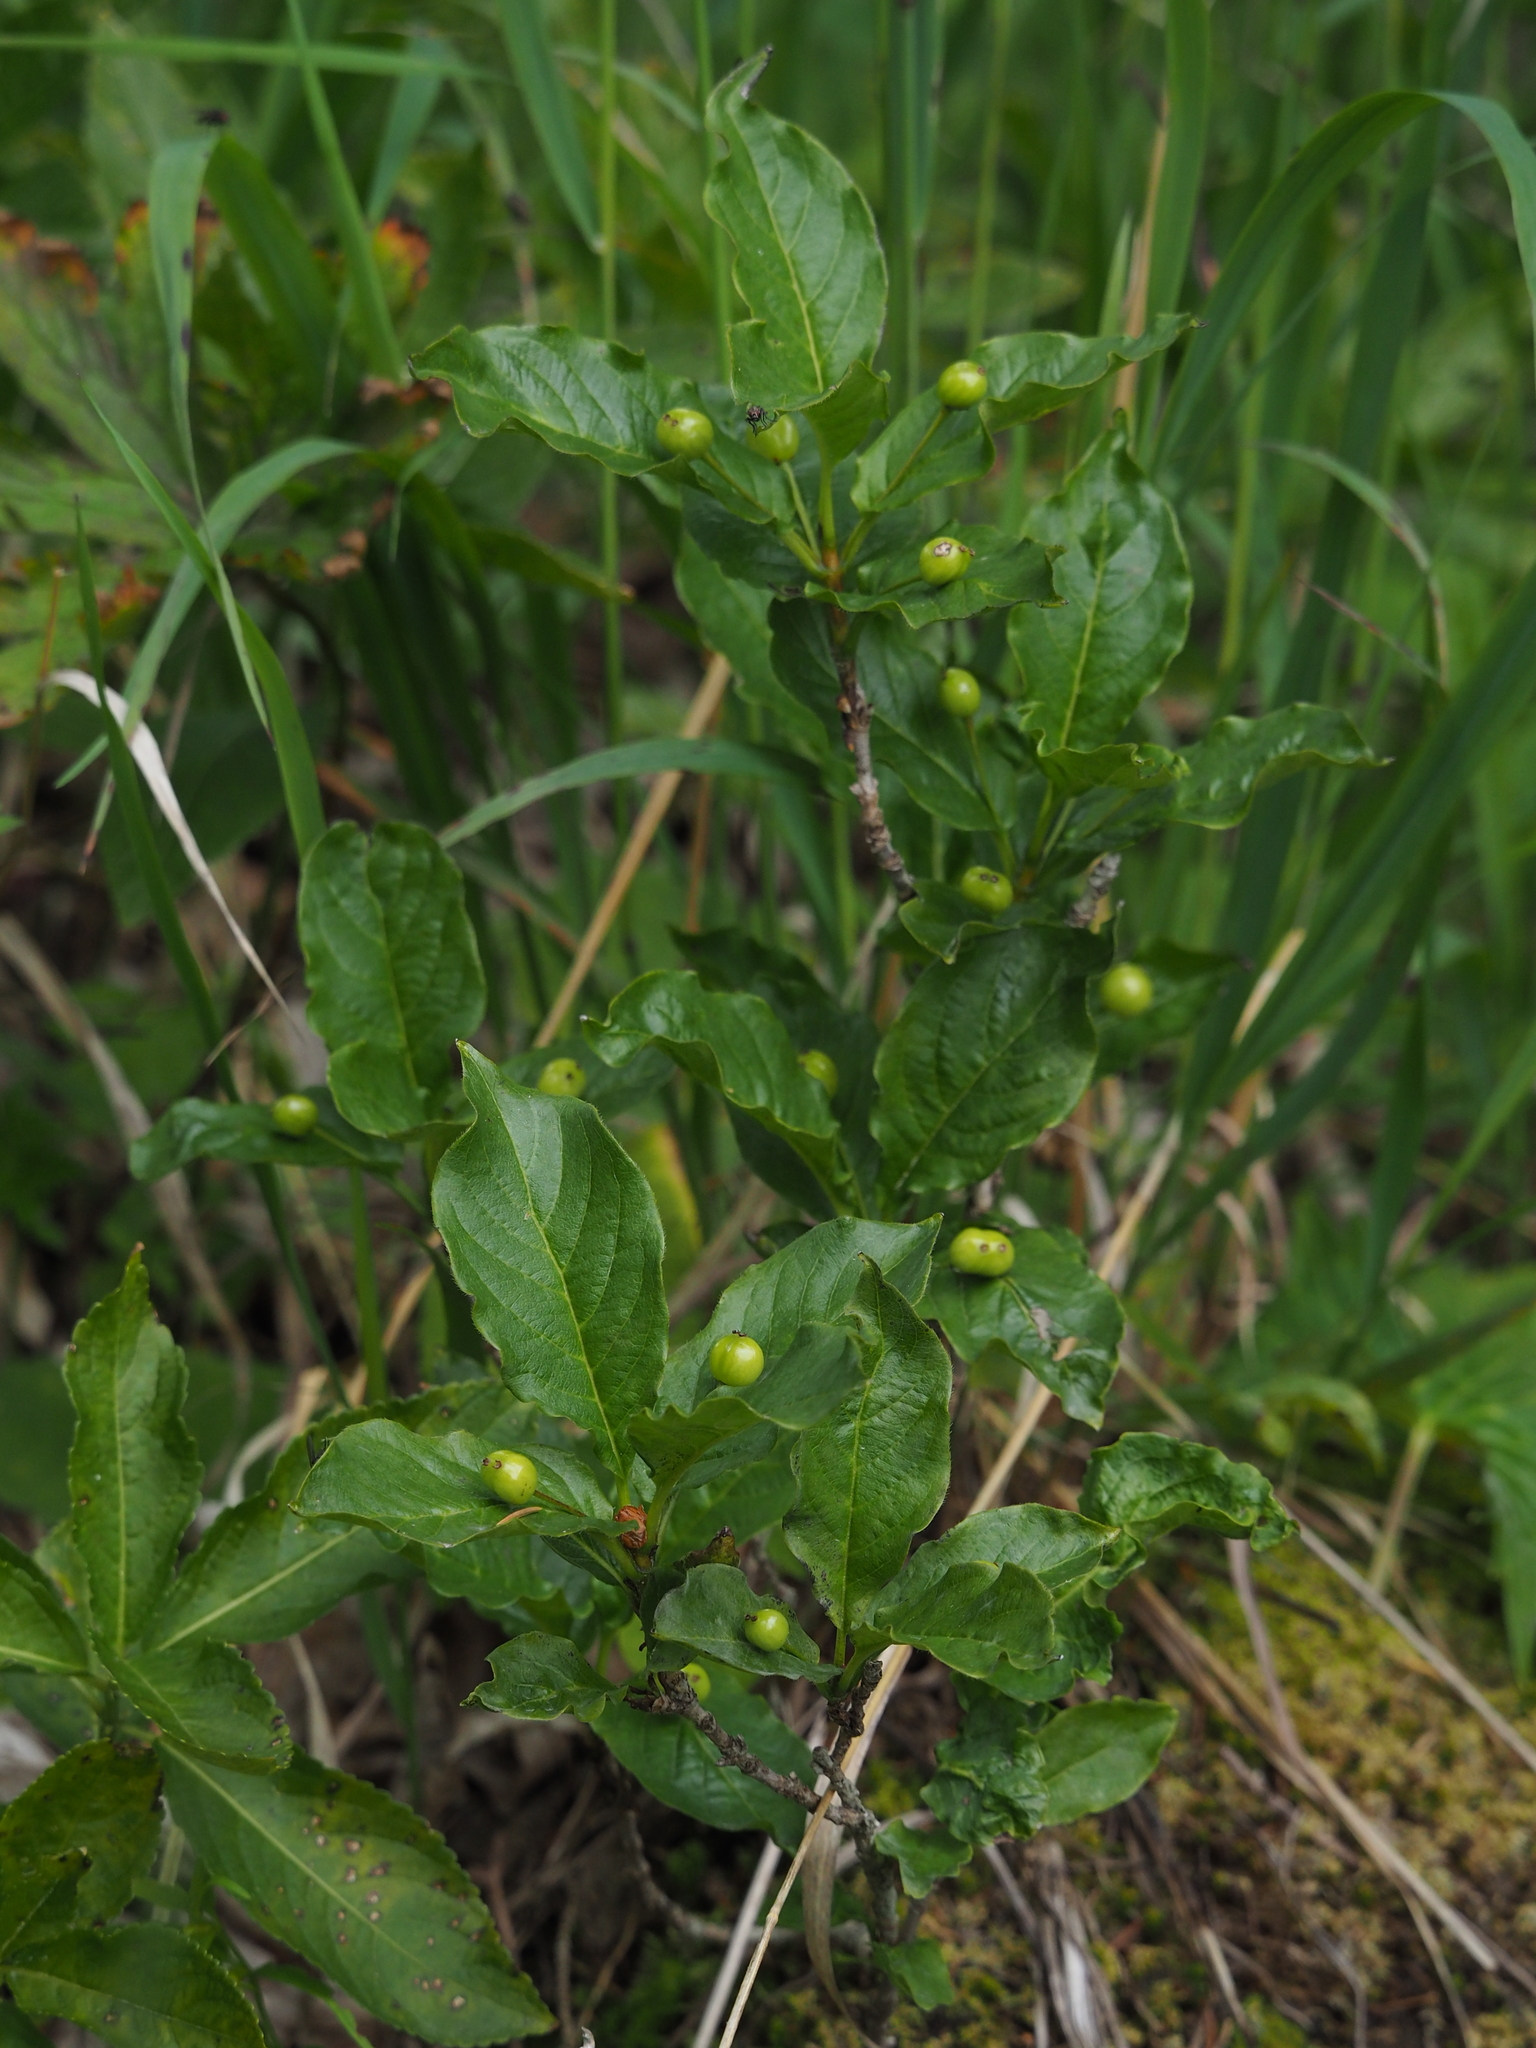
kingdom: Plantae
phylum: Tracheophyta
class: Magnoliopsida
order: Dipsacales
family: Caprifoliaceae
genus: Lonicera
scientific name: Lonicera alpigena
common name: Alpine honeysuckle
